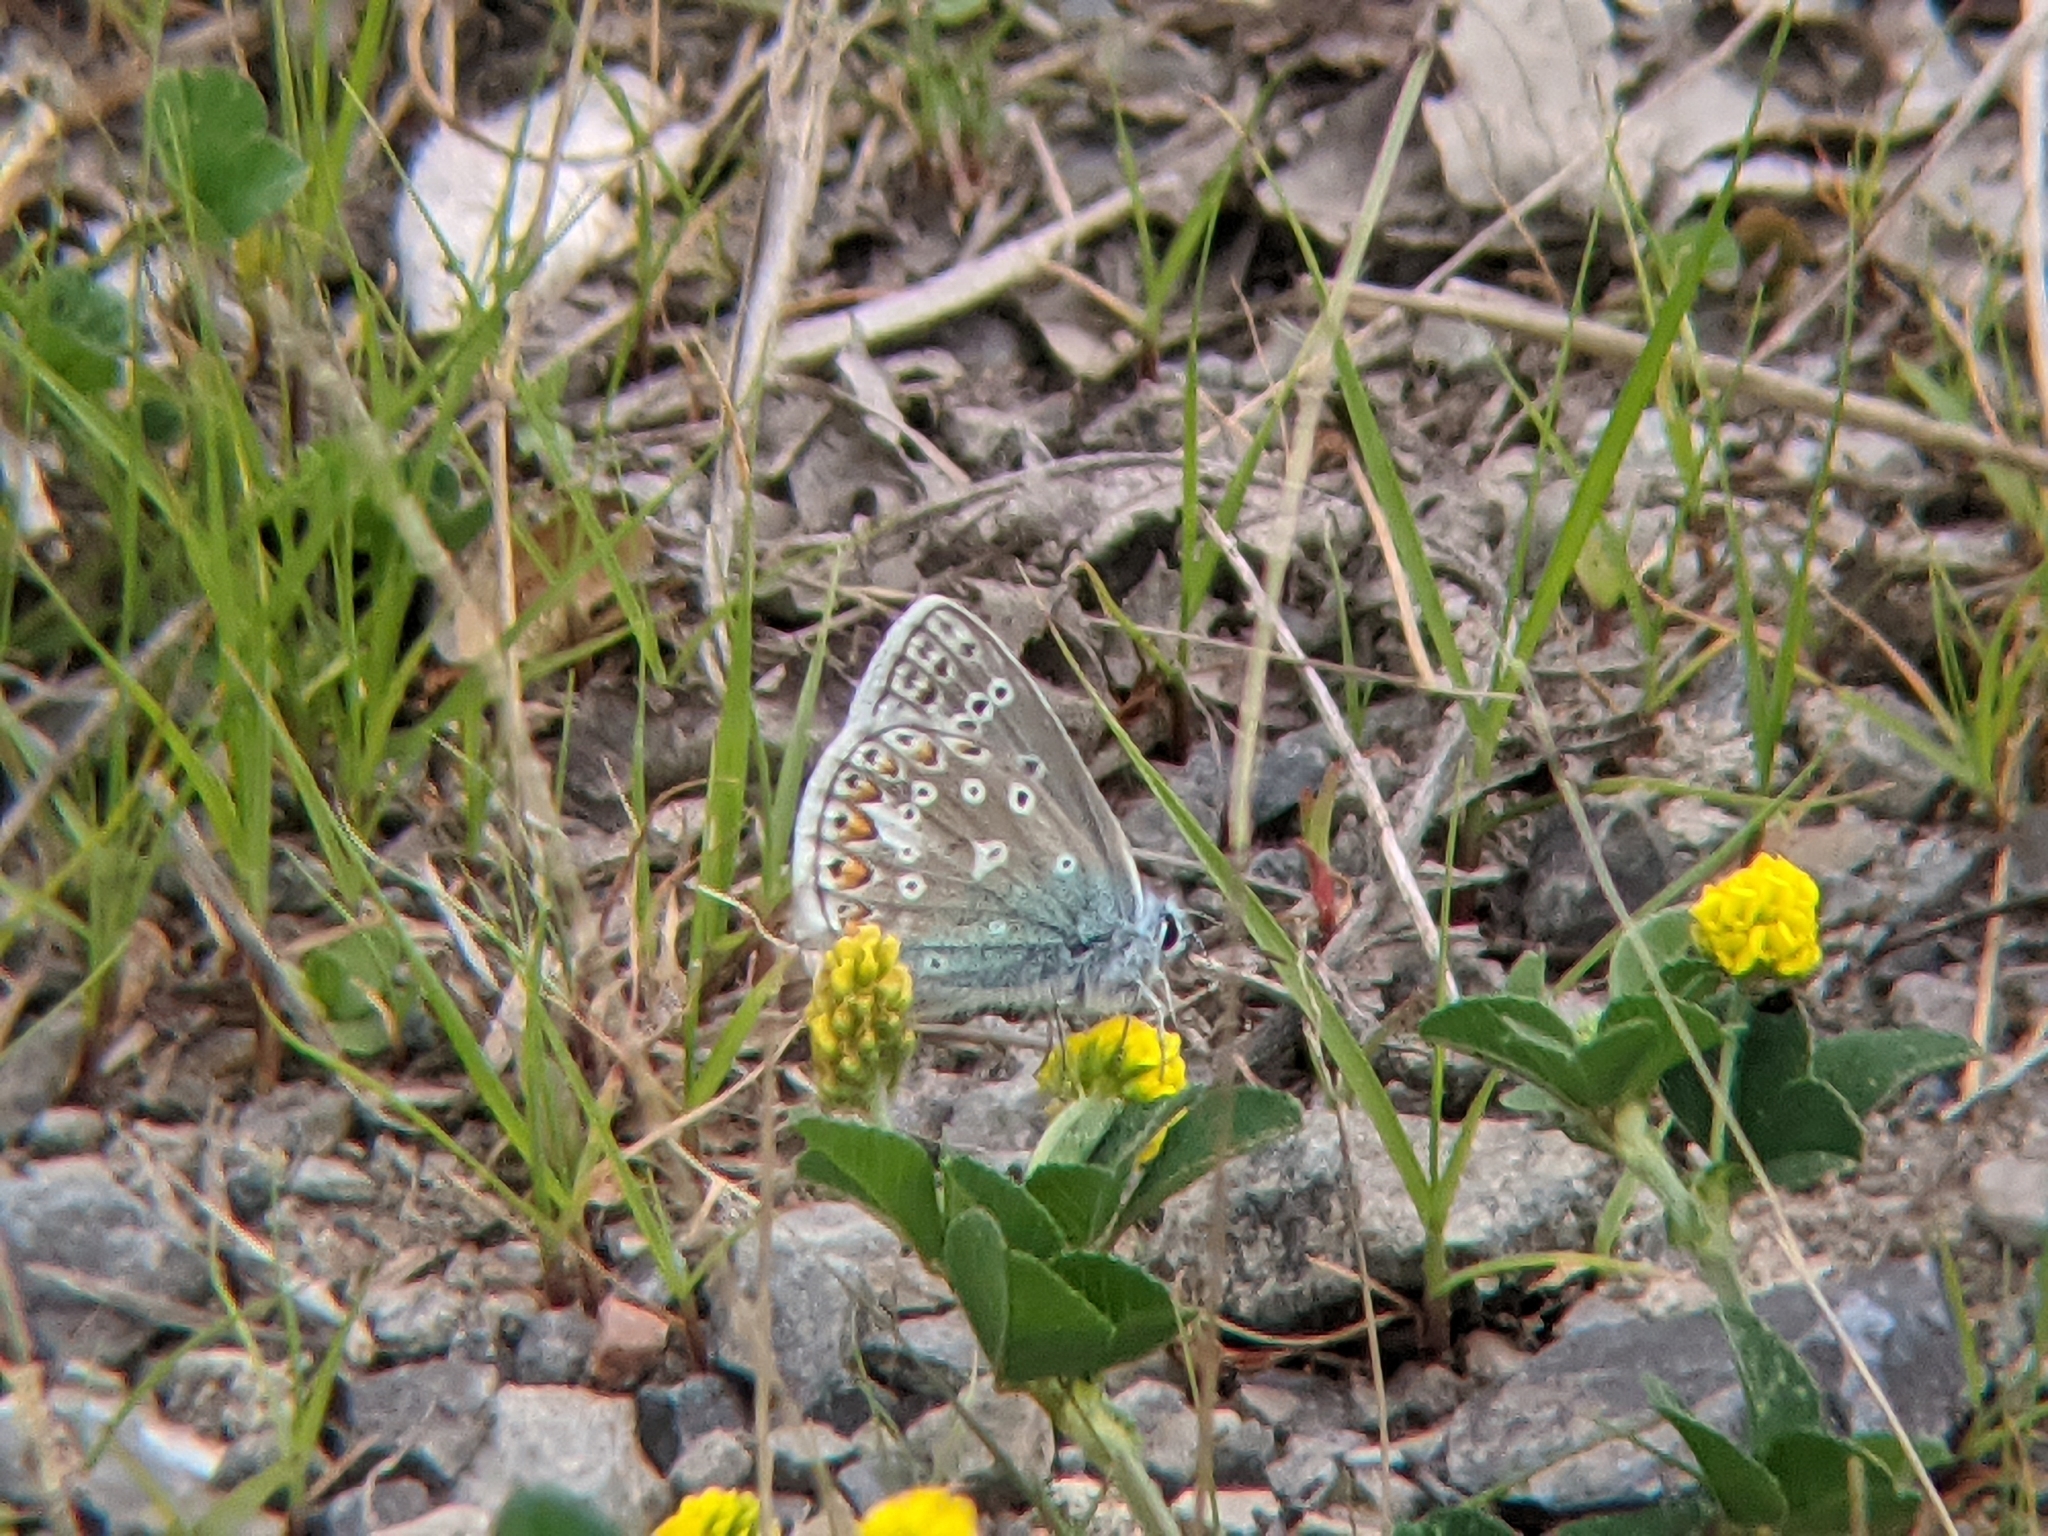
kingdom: Animalia
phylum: Arthropoda
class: Insecta
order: Lepidoptera
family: Lycaenidae
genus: Polyommatus
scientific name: Polyommatus icarus
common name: Common blue
